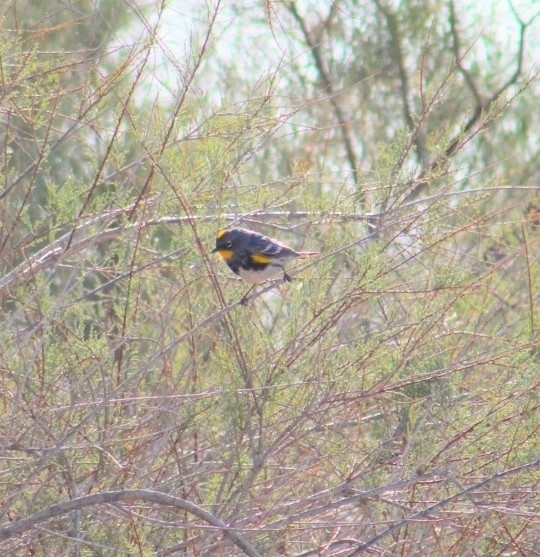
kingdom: Animalia
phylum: Chordata
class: Aves
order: Passeriformes
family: Parulidae
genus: Setophaga
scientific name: Setophaga auduboni
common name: Audubon's warbler
